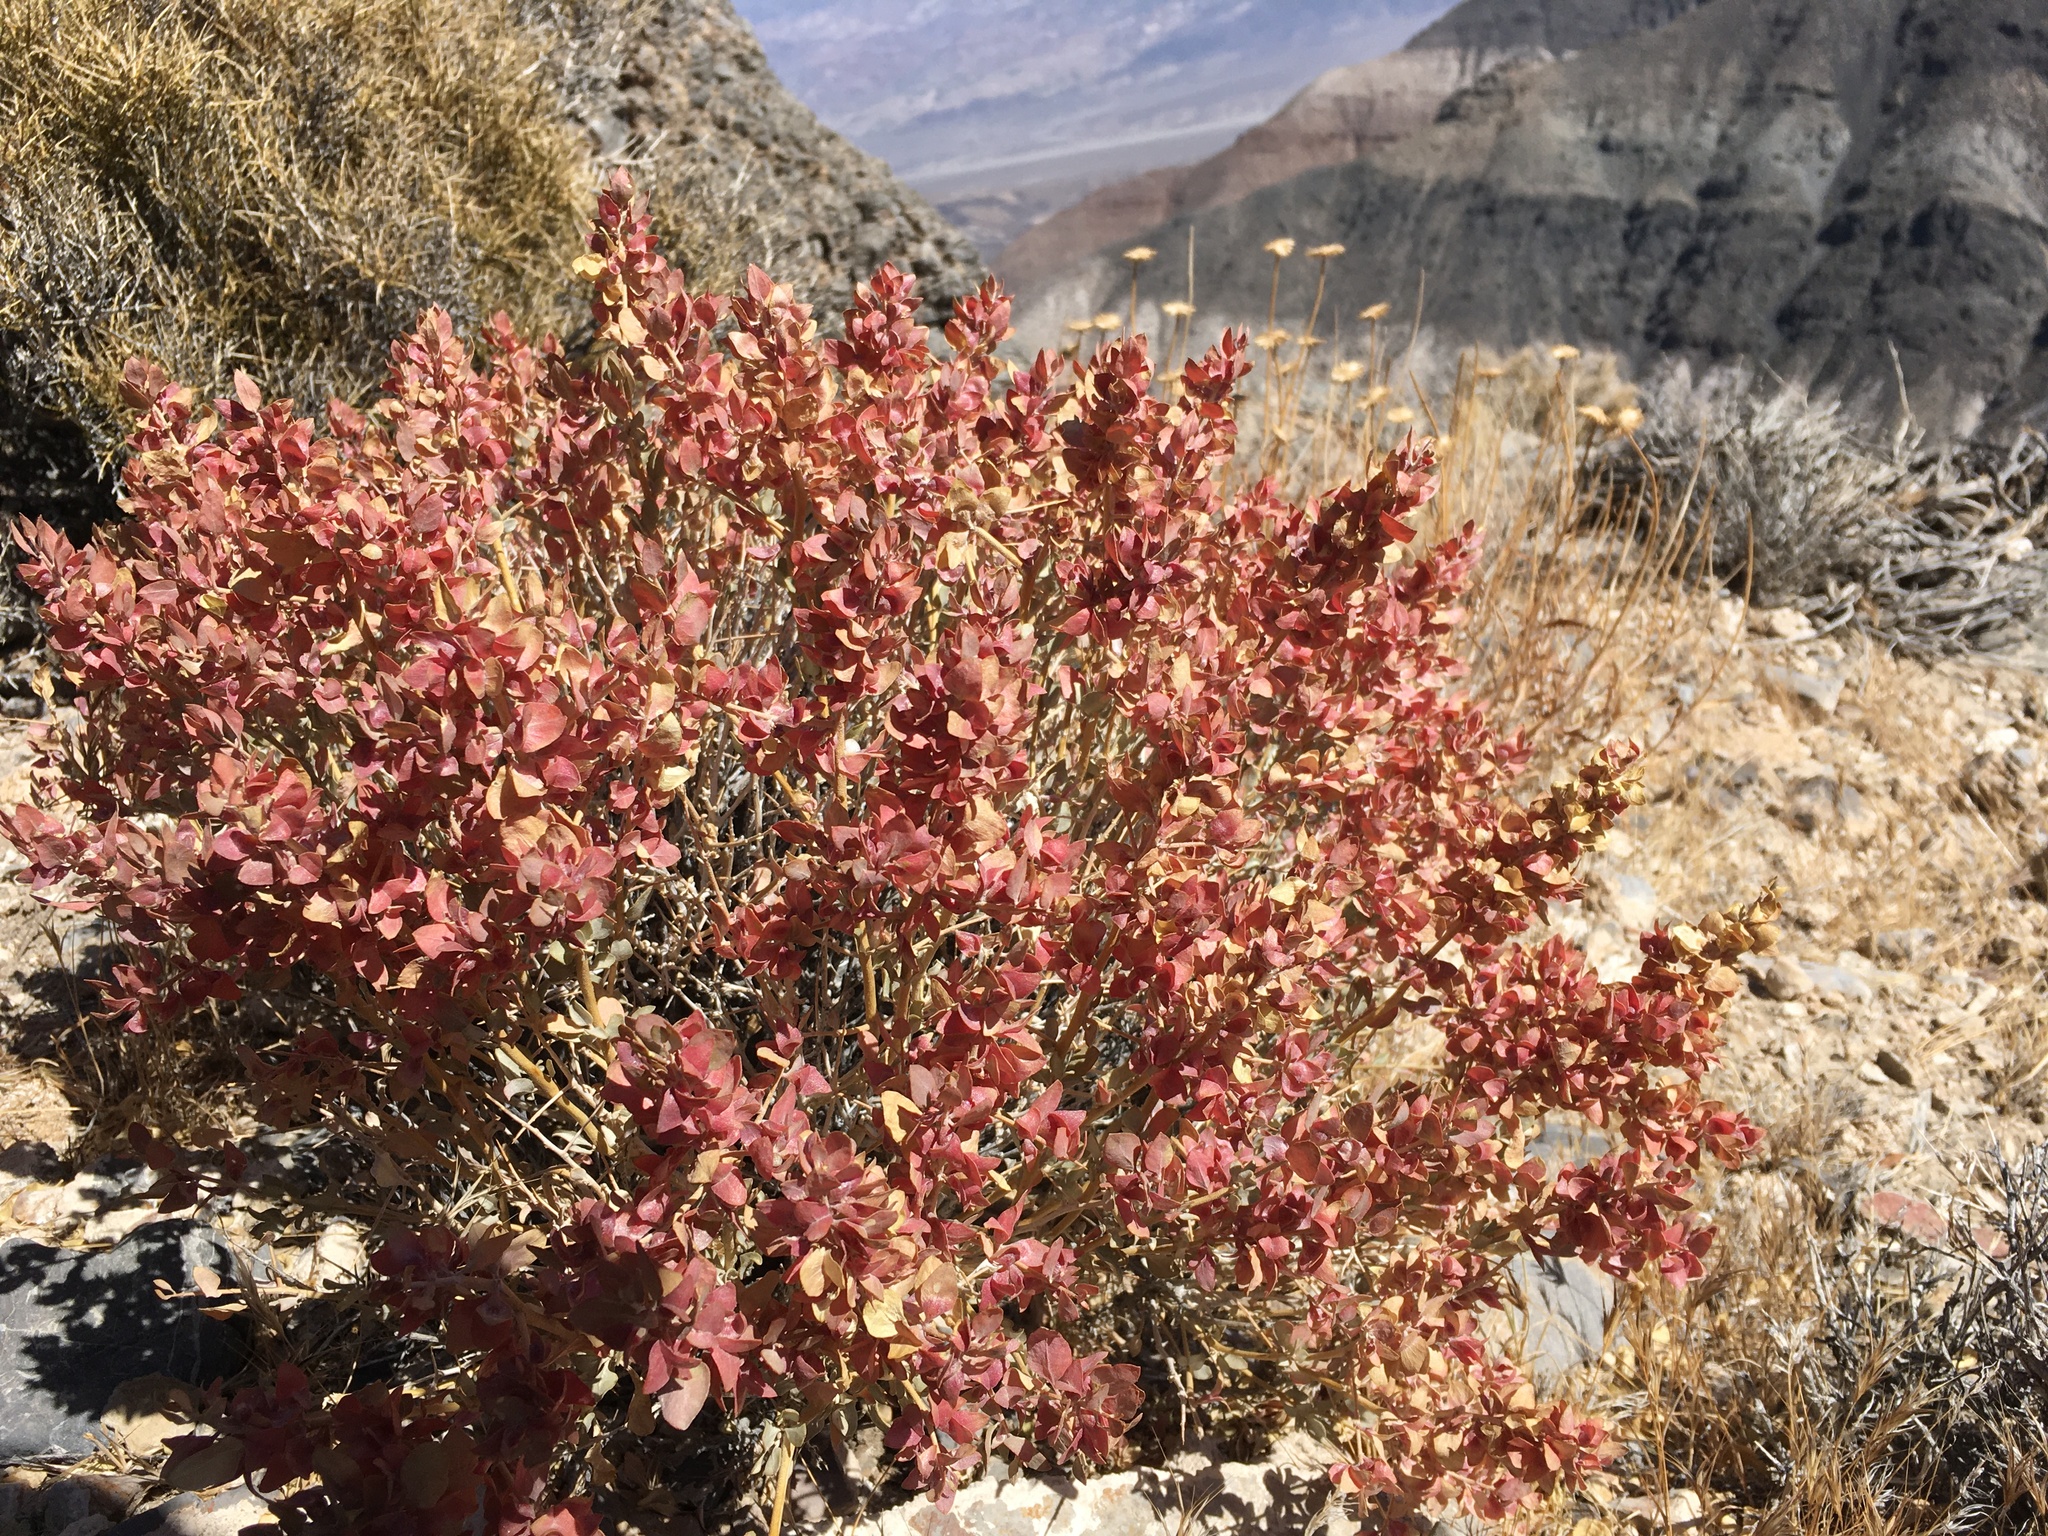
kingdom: Plantae
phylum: Tracheophyta
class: Magnoliopsida
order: Caryophyllales
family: Amaranthaceae
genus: Atriplex
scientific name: Atriplex confertifolia
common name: Shadscale
